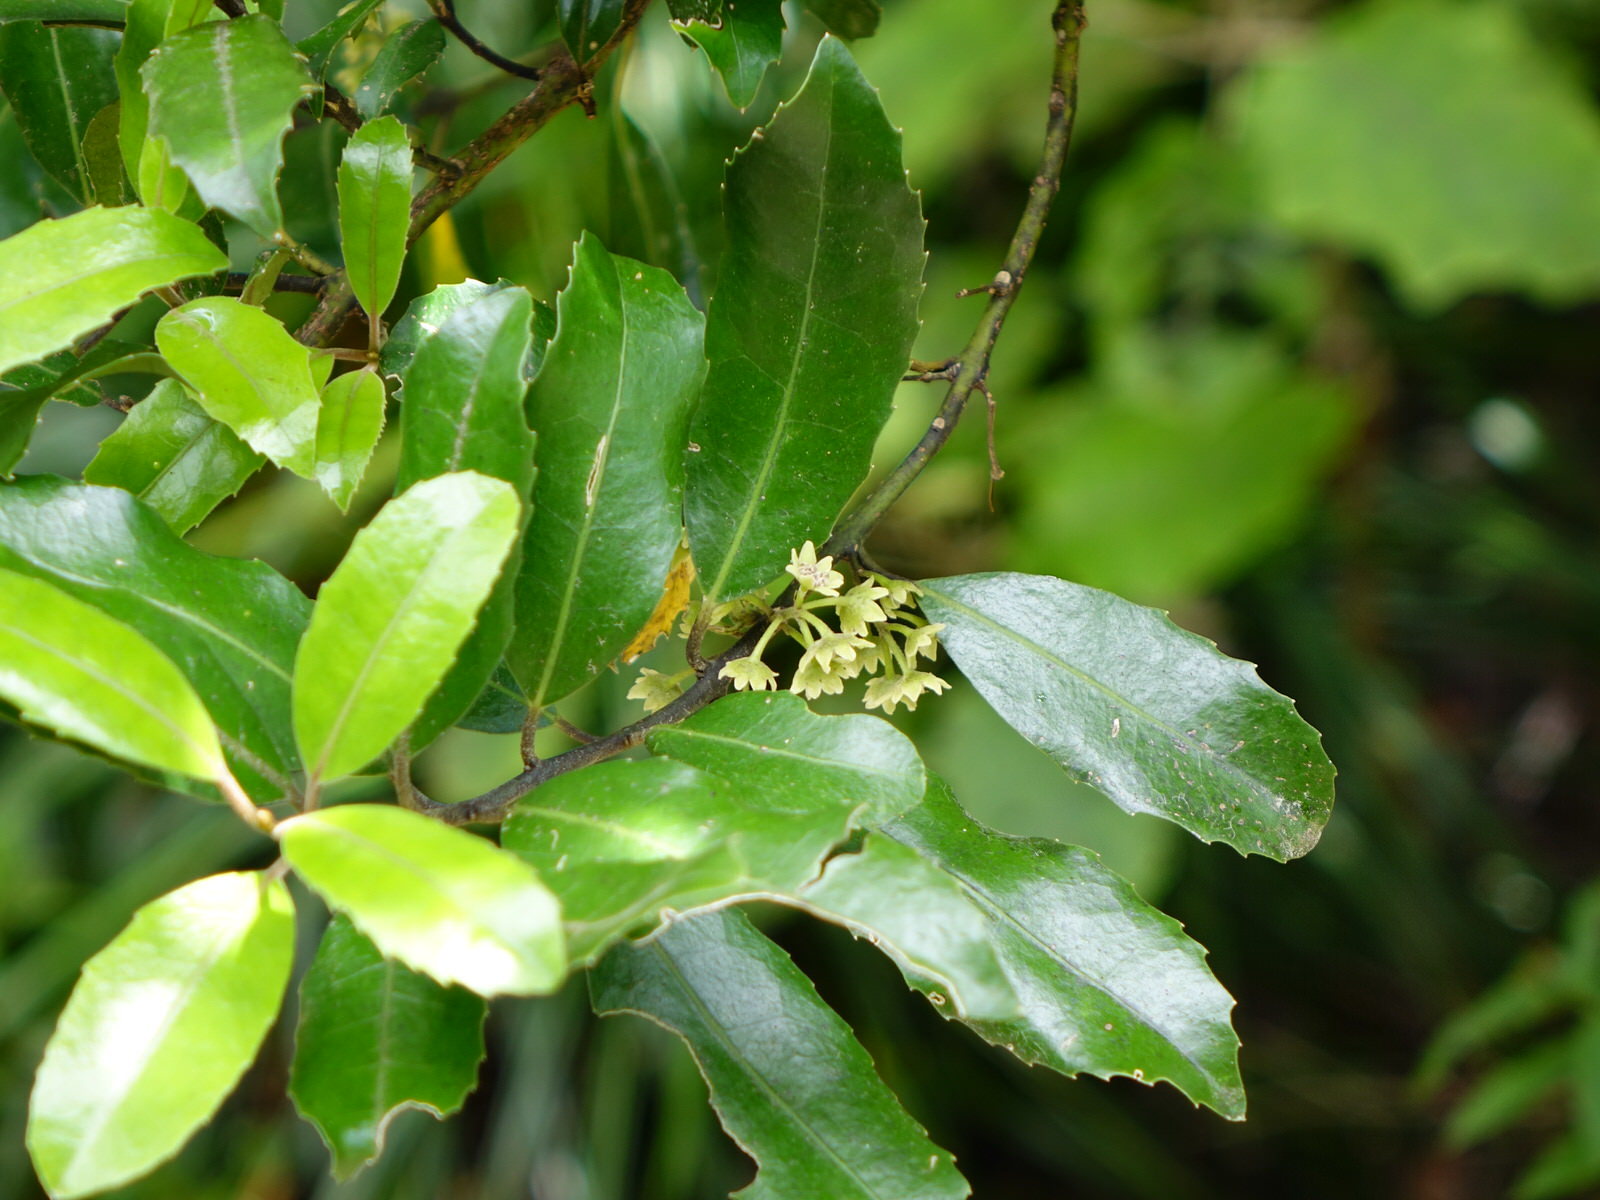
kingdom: Plantae
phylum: Tracheophyta
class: Magnoliopsida
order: Laurales
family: Monimiaceae
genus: Hedycarya
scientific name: Hedycarya arborea
